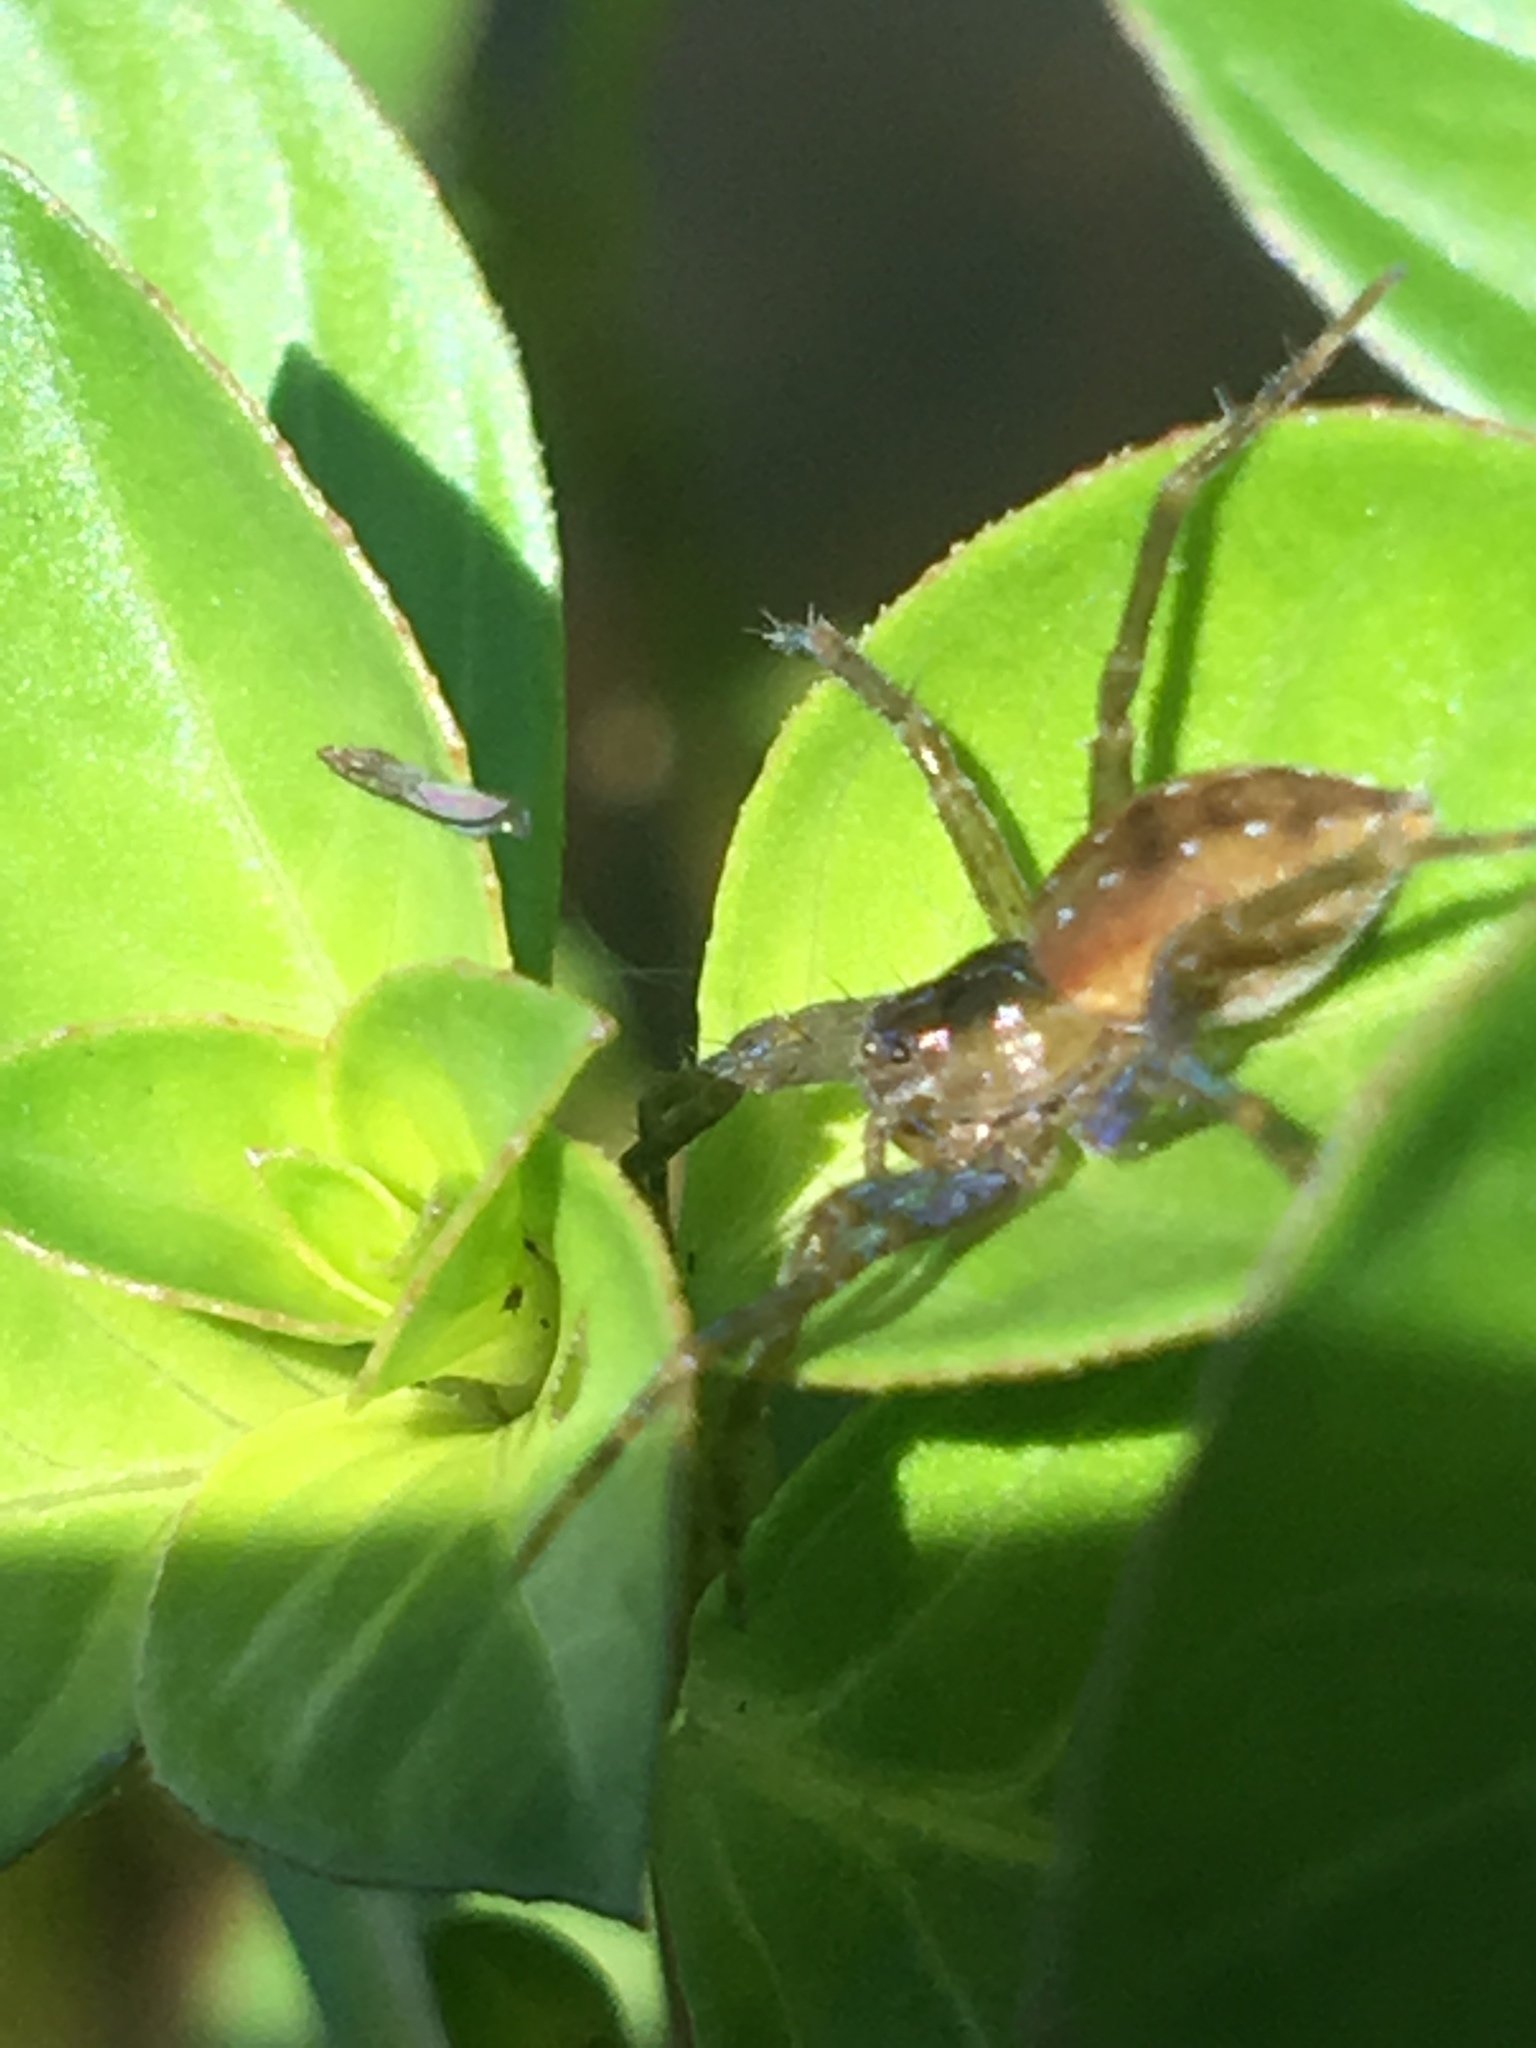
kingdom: Animalia
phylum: Arthropoda
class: Arachnida
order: Araneae
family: Pisauridae
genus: Dolomedes
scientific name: Dolomedes triton
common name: Six-spotted fishing spider
